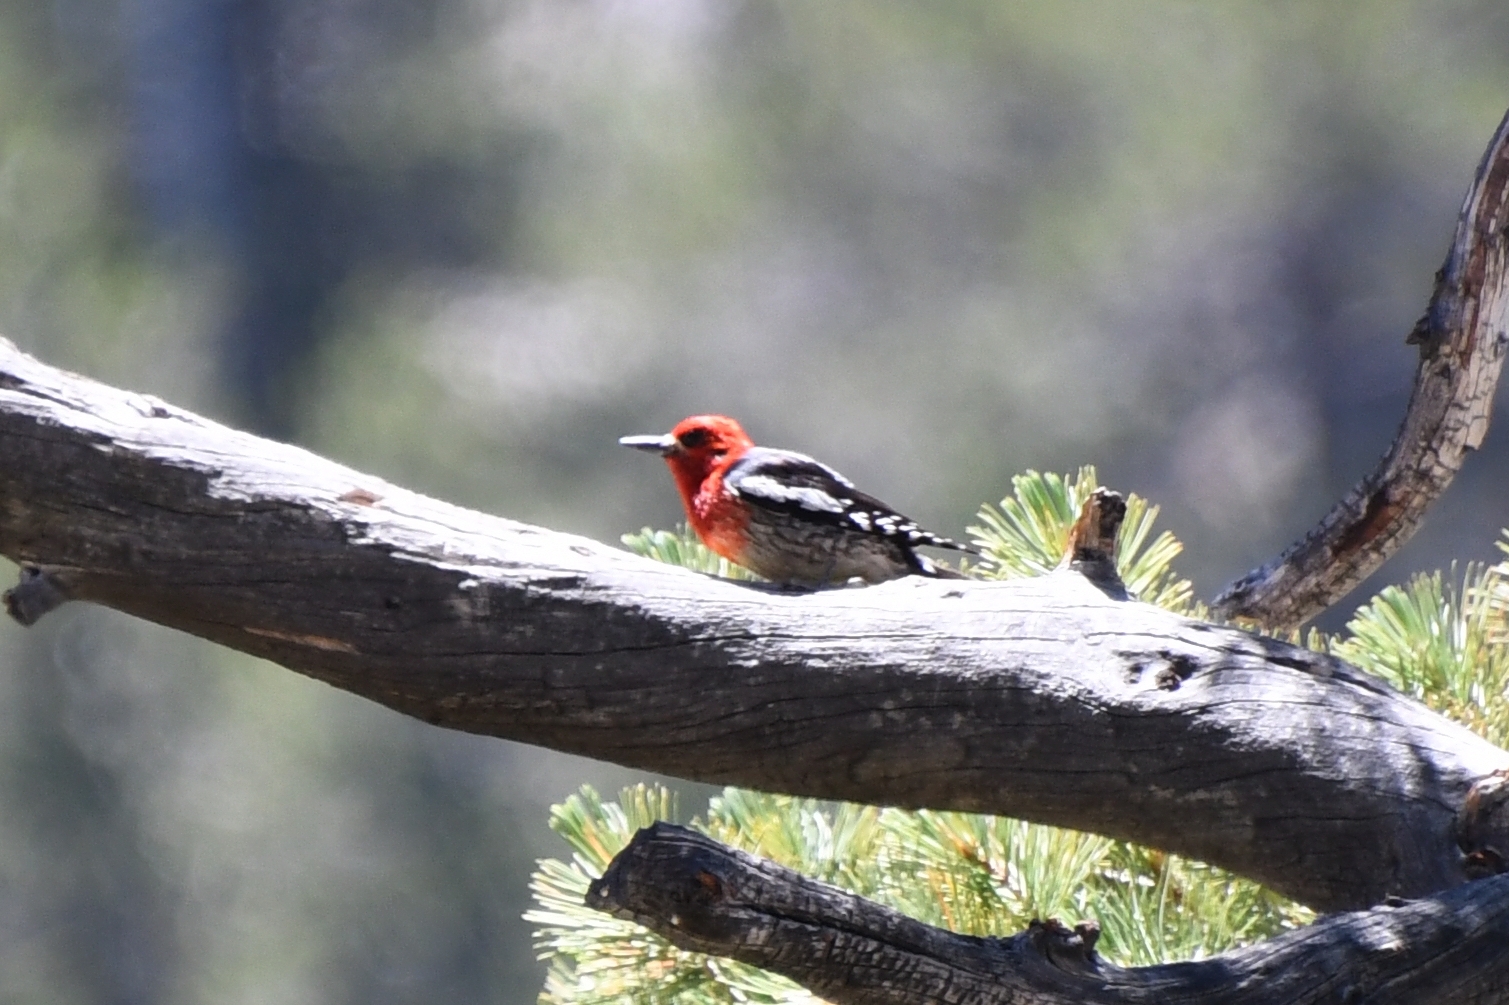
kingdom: Animalia
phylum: Chordata
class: Aves
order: Piciformes
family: Picidae
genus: Sphyrapicus
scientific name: Sphyrapicus ruber
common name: Red-breasted sapsucker
